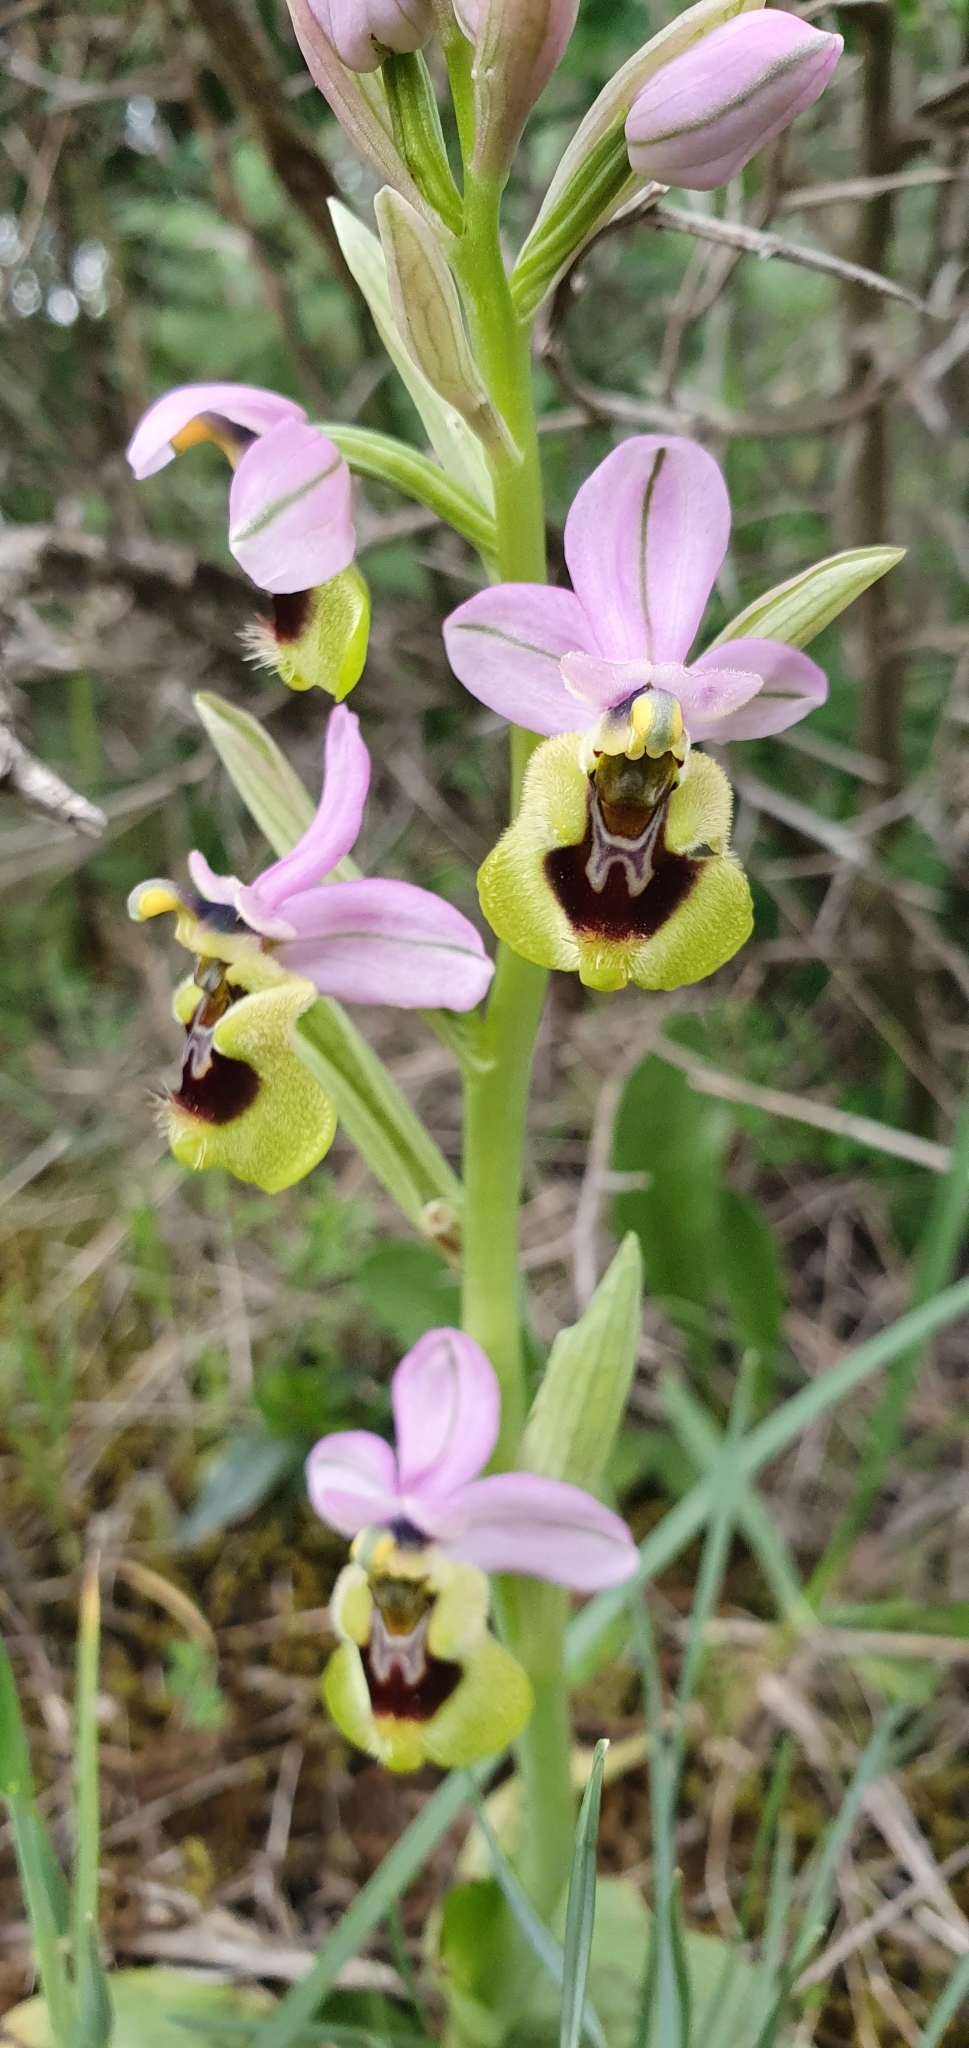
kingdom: Plantae
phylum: Tracheophyta
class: Liliopsida
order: Asparagales
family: Orchidaceae
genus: Ophrys
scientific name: Ophrys tenthredinifera
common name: Sawfly orchid
